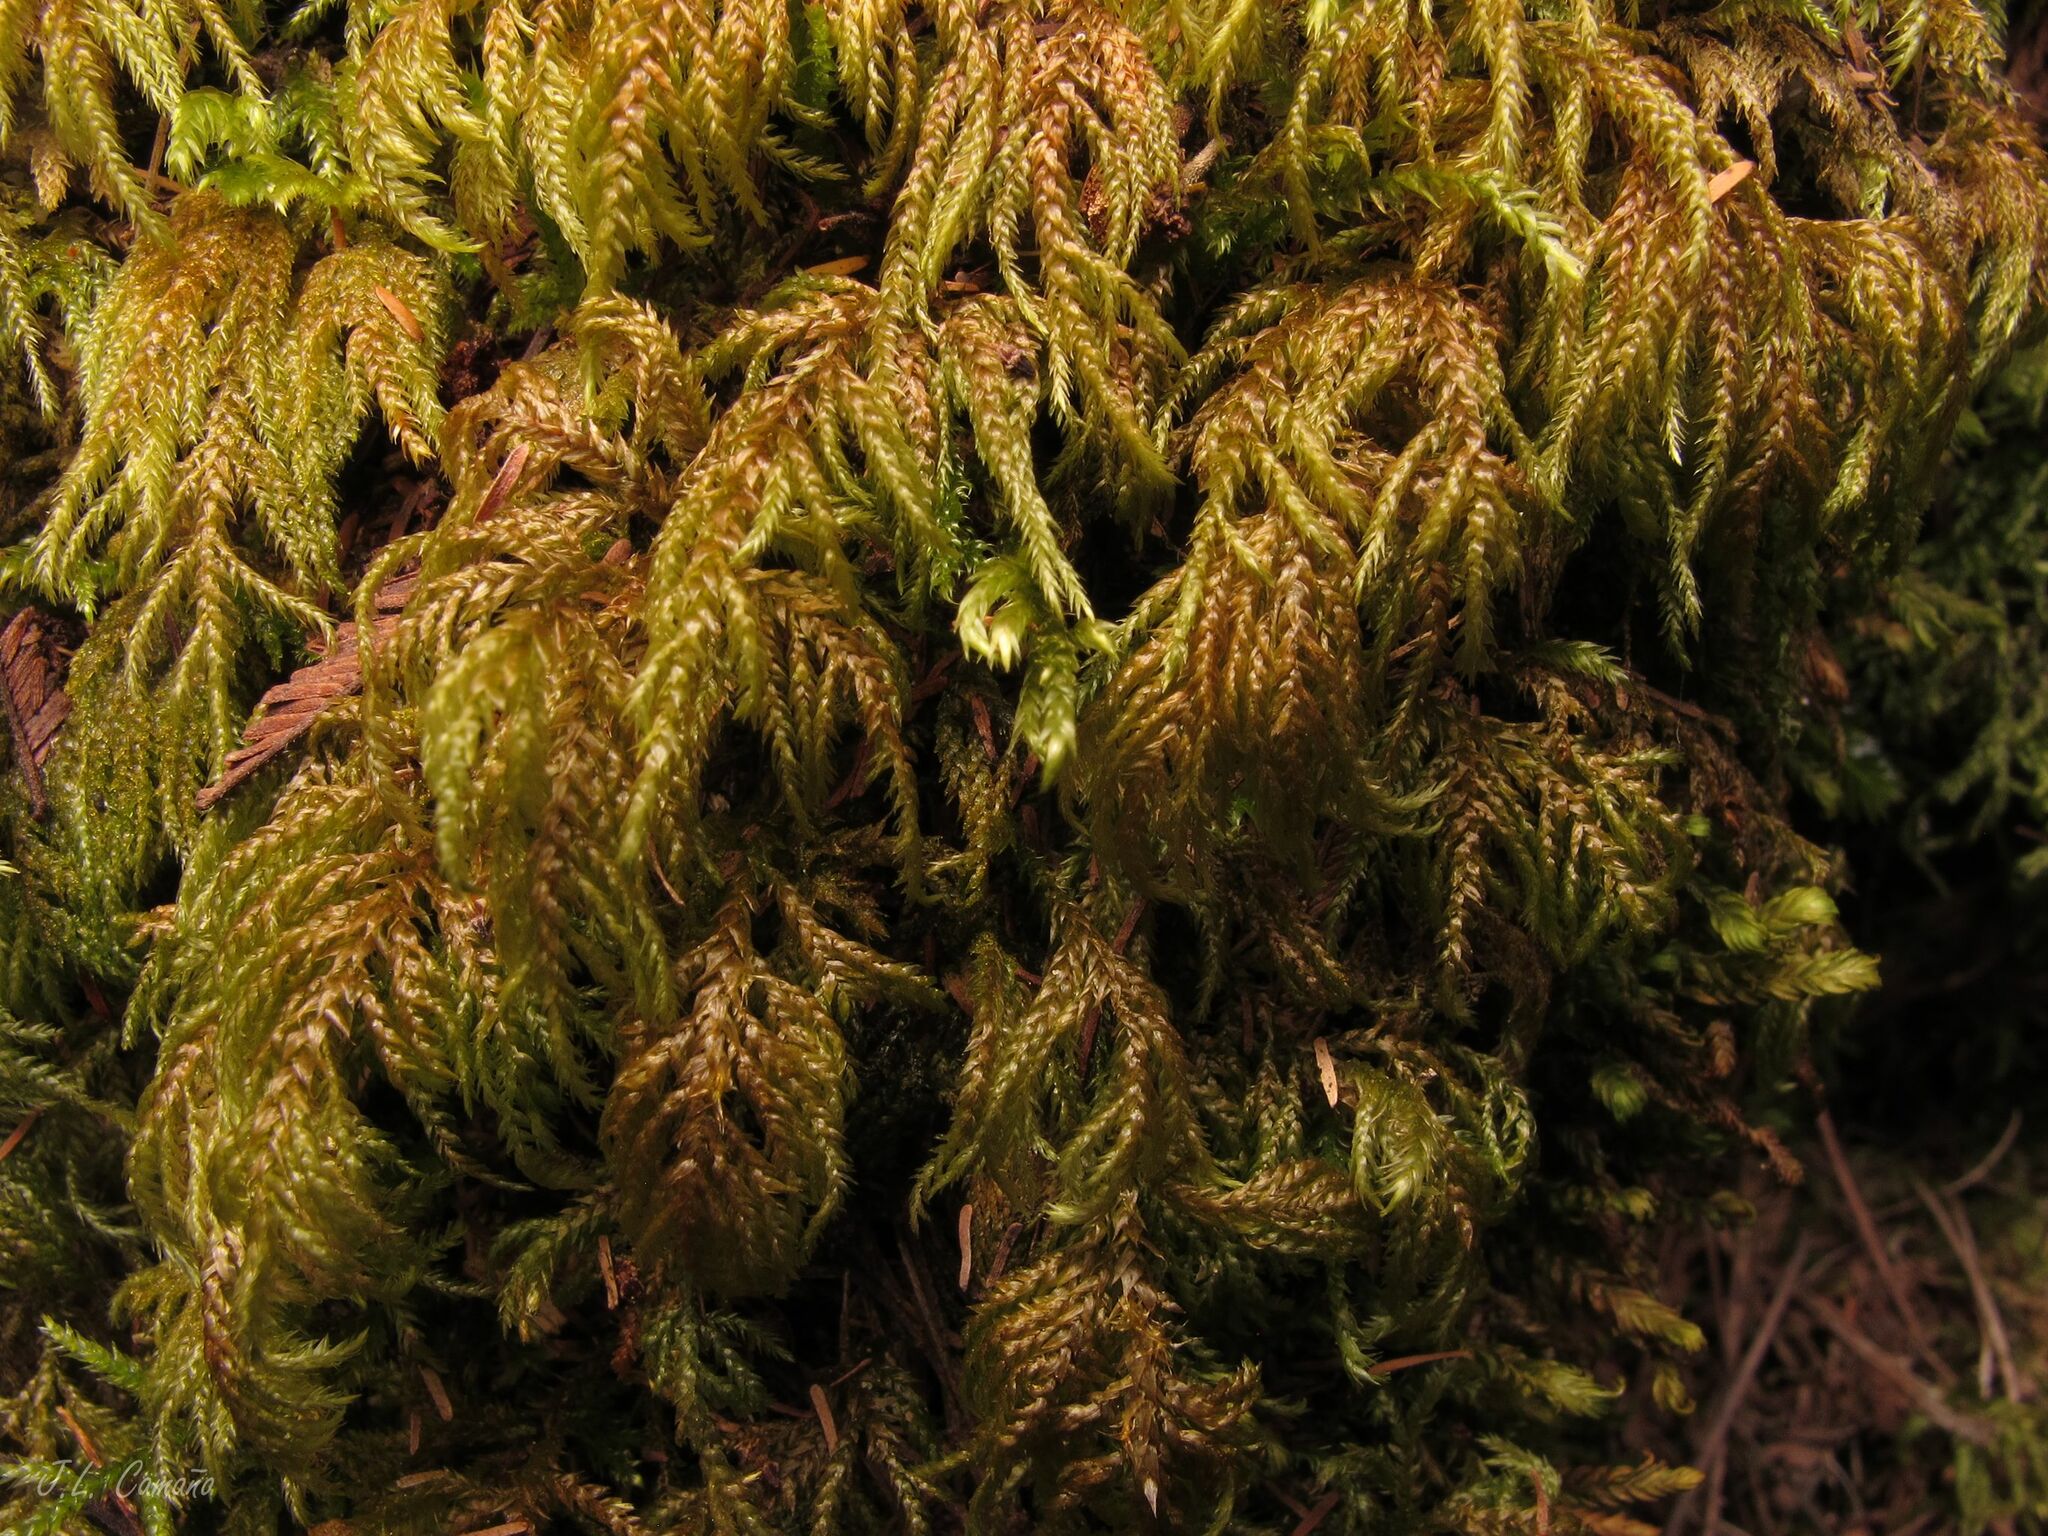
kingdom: Plantae
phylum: Bryophyta
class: Bryopsida
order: Hypnales
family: Myuriaceae
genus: Hyocomium
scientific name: Hyocomium armoricum
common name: Flagellate feather-moss
